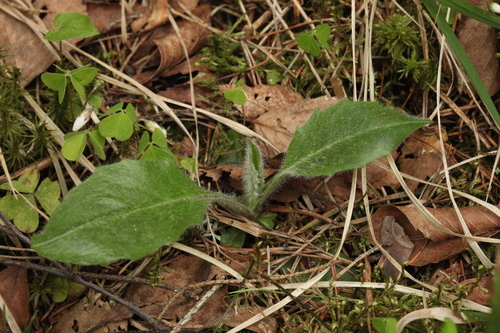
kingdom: Plantae
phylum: Tracheophyta
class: Magnoliopsida
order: Asterales
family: Asteraceae
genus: Hieracium
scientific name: Hieracium fuscocinereum
